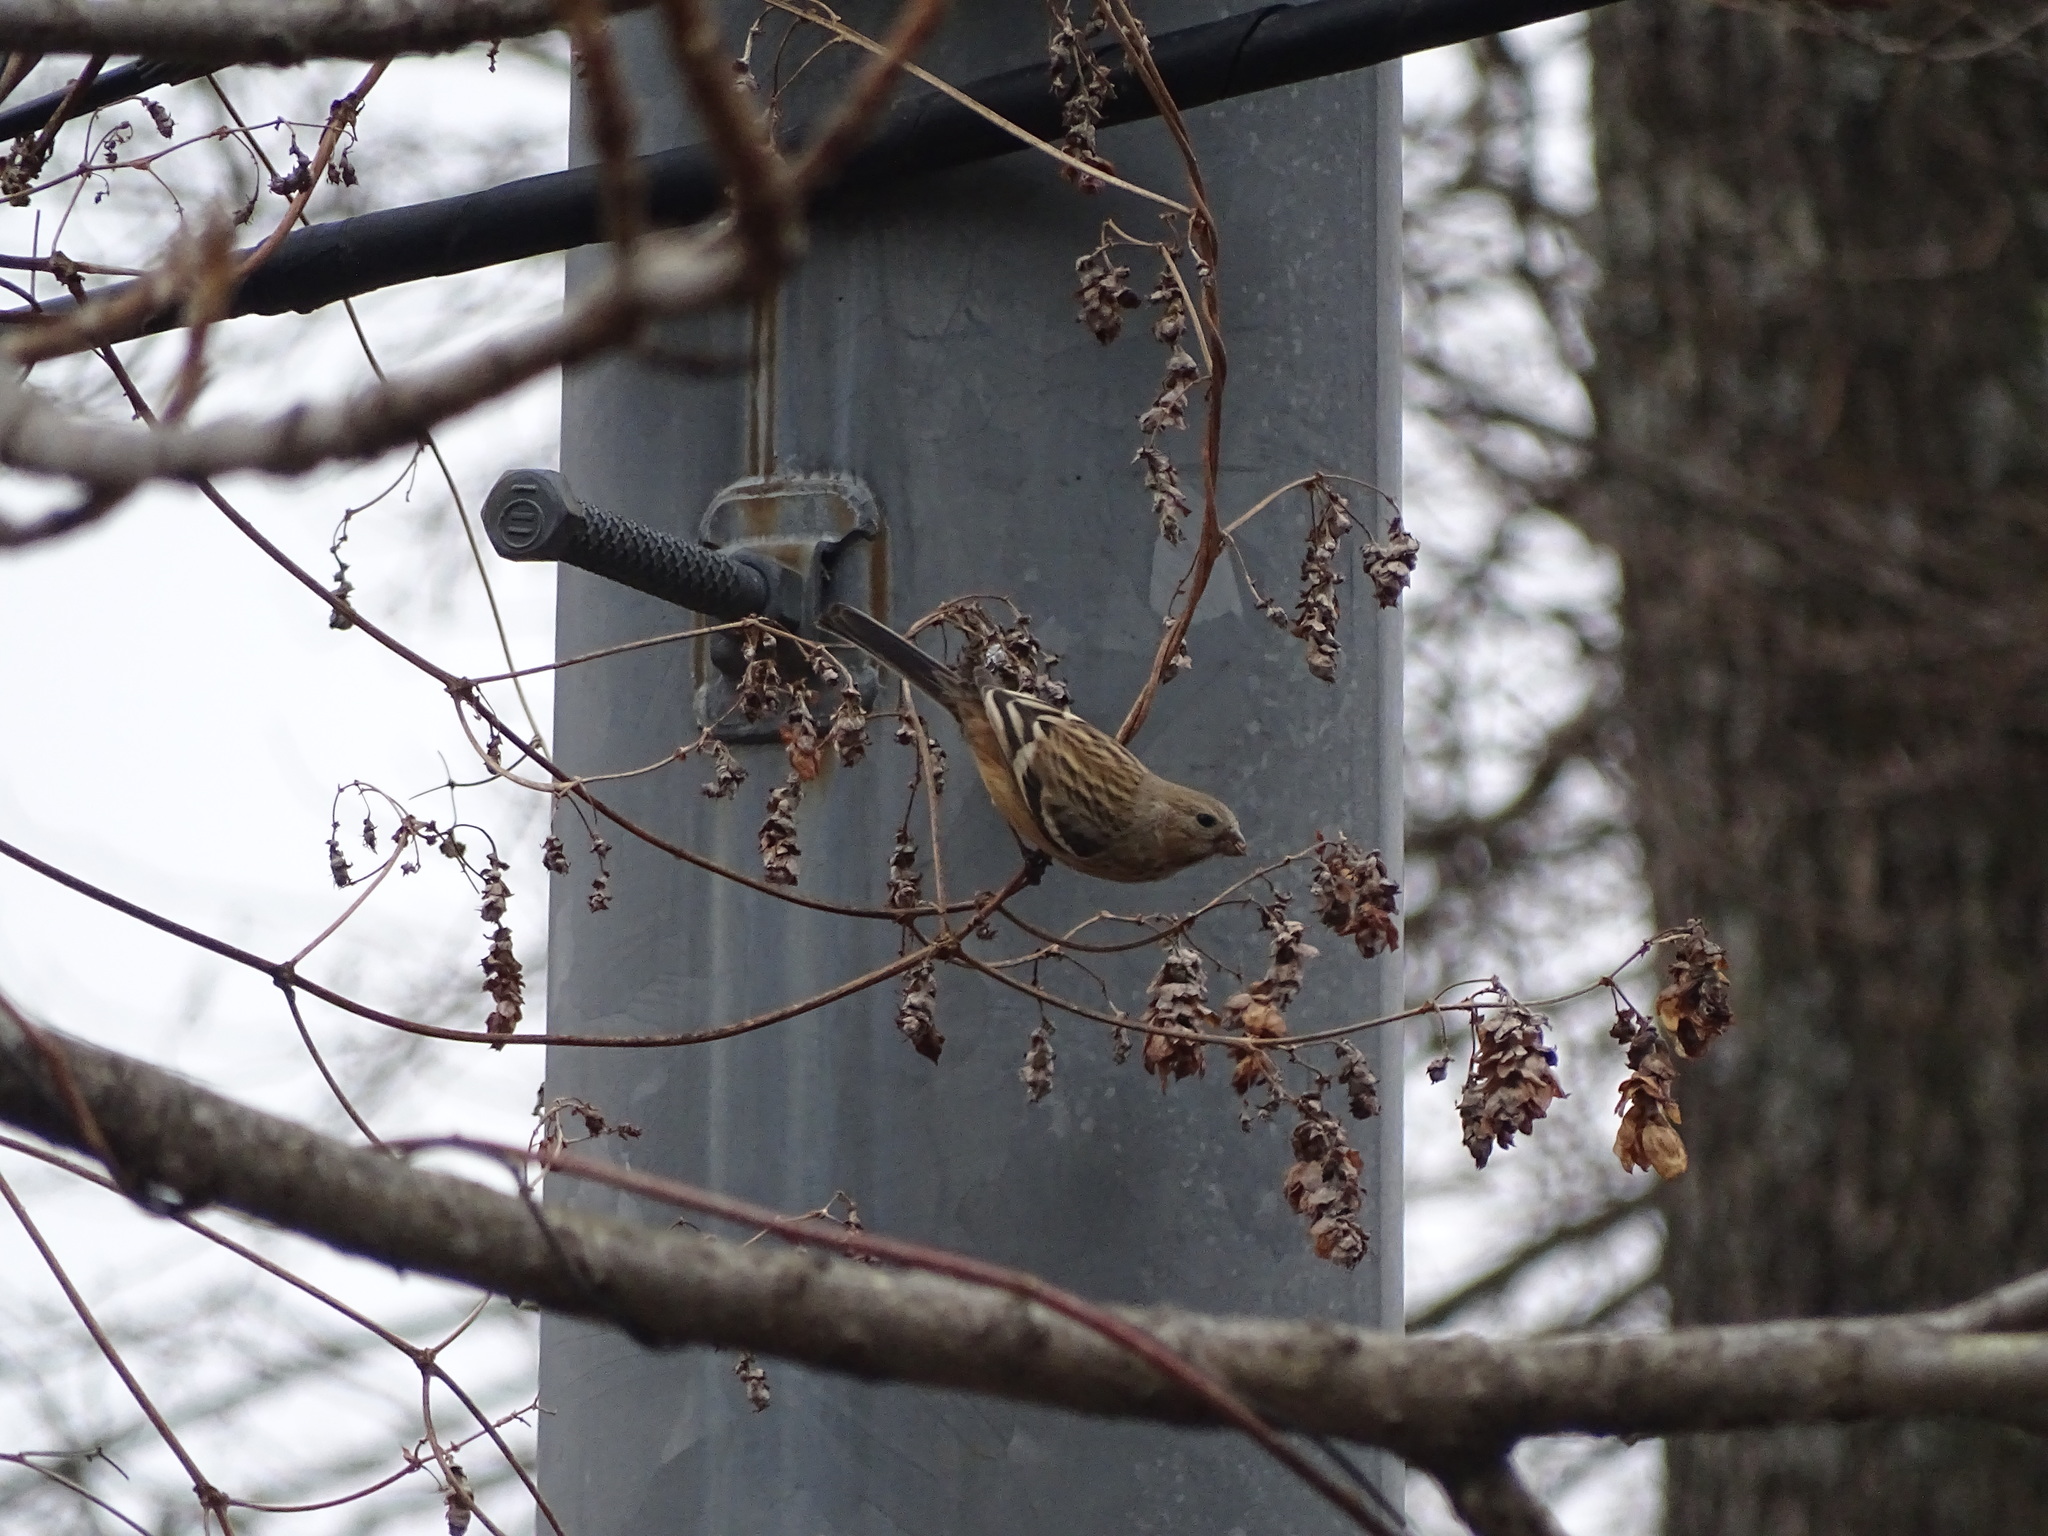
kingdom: Animalia
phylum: Chordata
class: Aves
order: Passeriformes
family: Fringillidae
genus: Carpodacus
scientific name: Carpodacus sibiricus
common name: Long-tailed rosefinch
